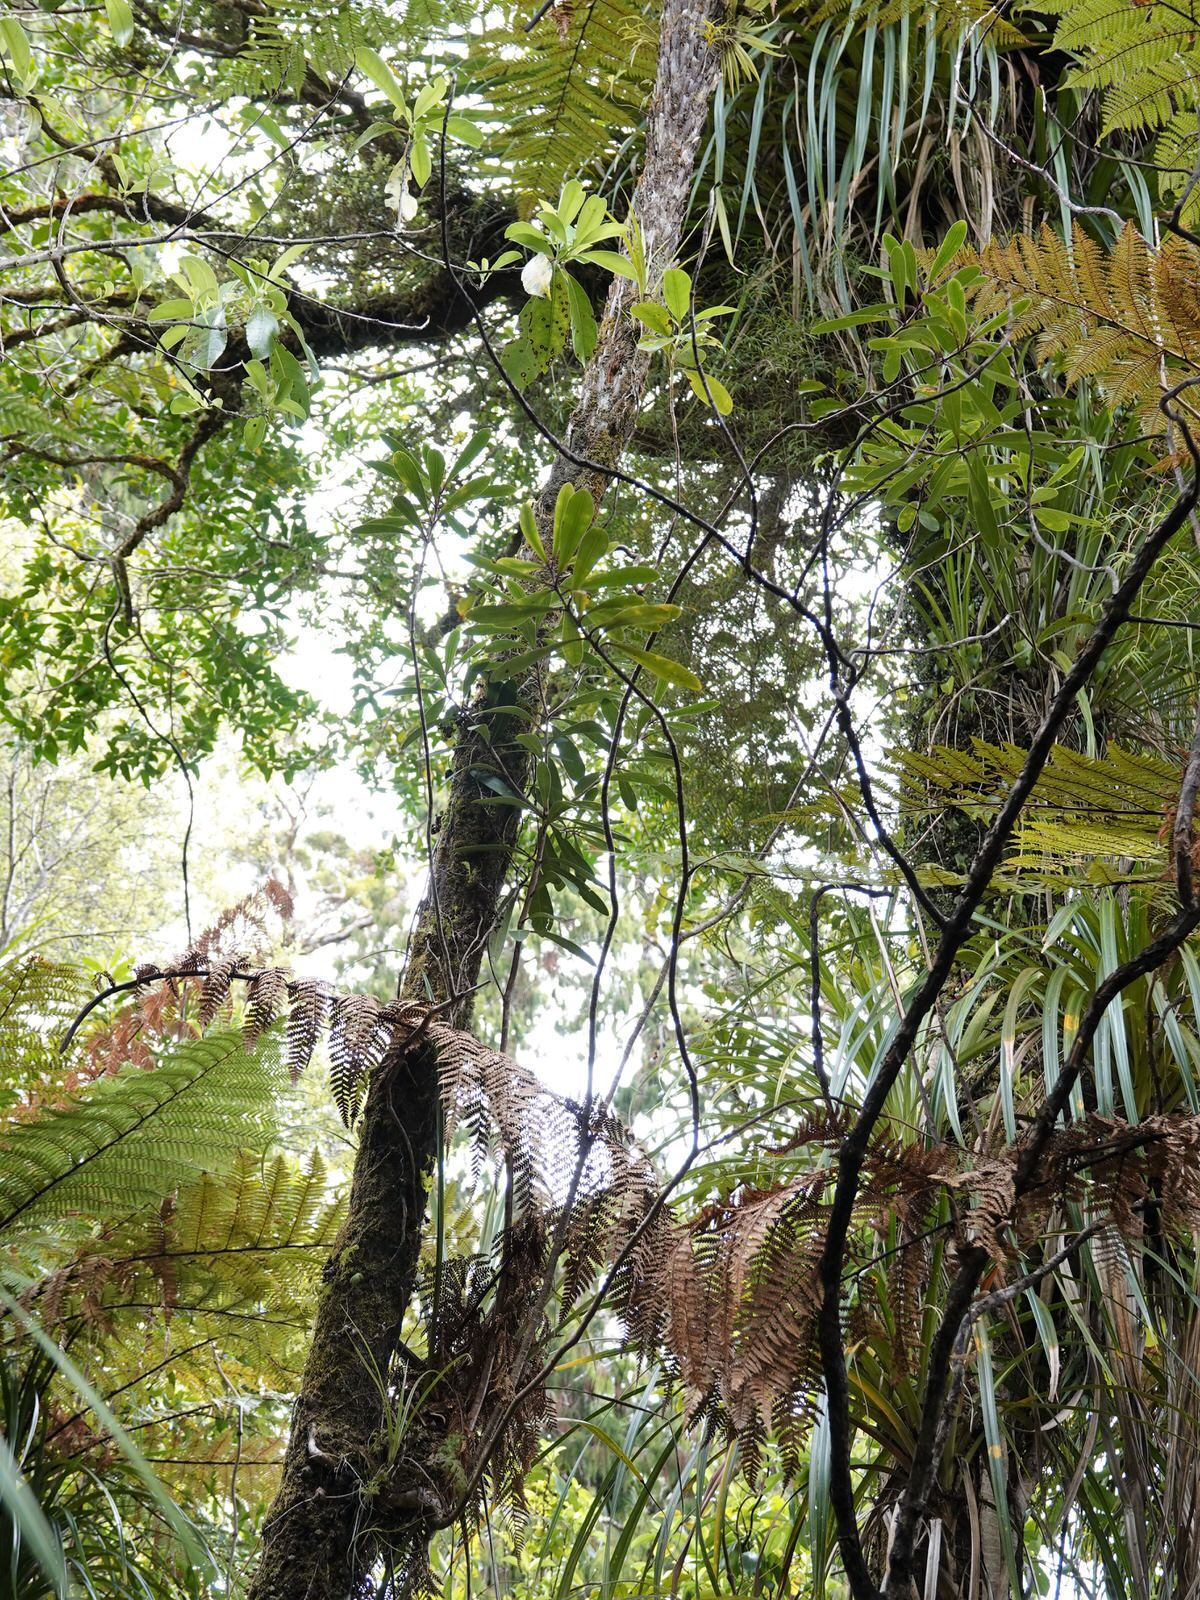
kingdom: Plantae
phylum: Tracheophyta
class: Magnoliopsida
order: Apiales
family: Pittosporaceae
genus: Pittosporum
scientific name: Pittosporum kirkii
